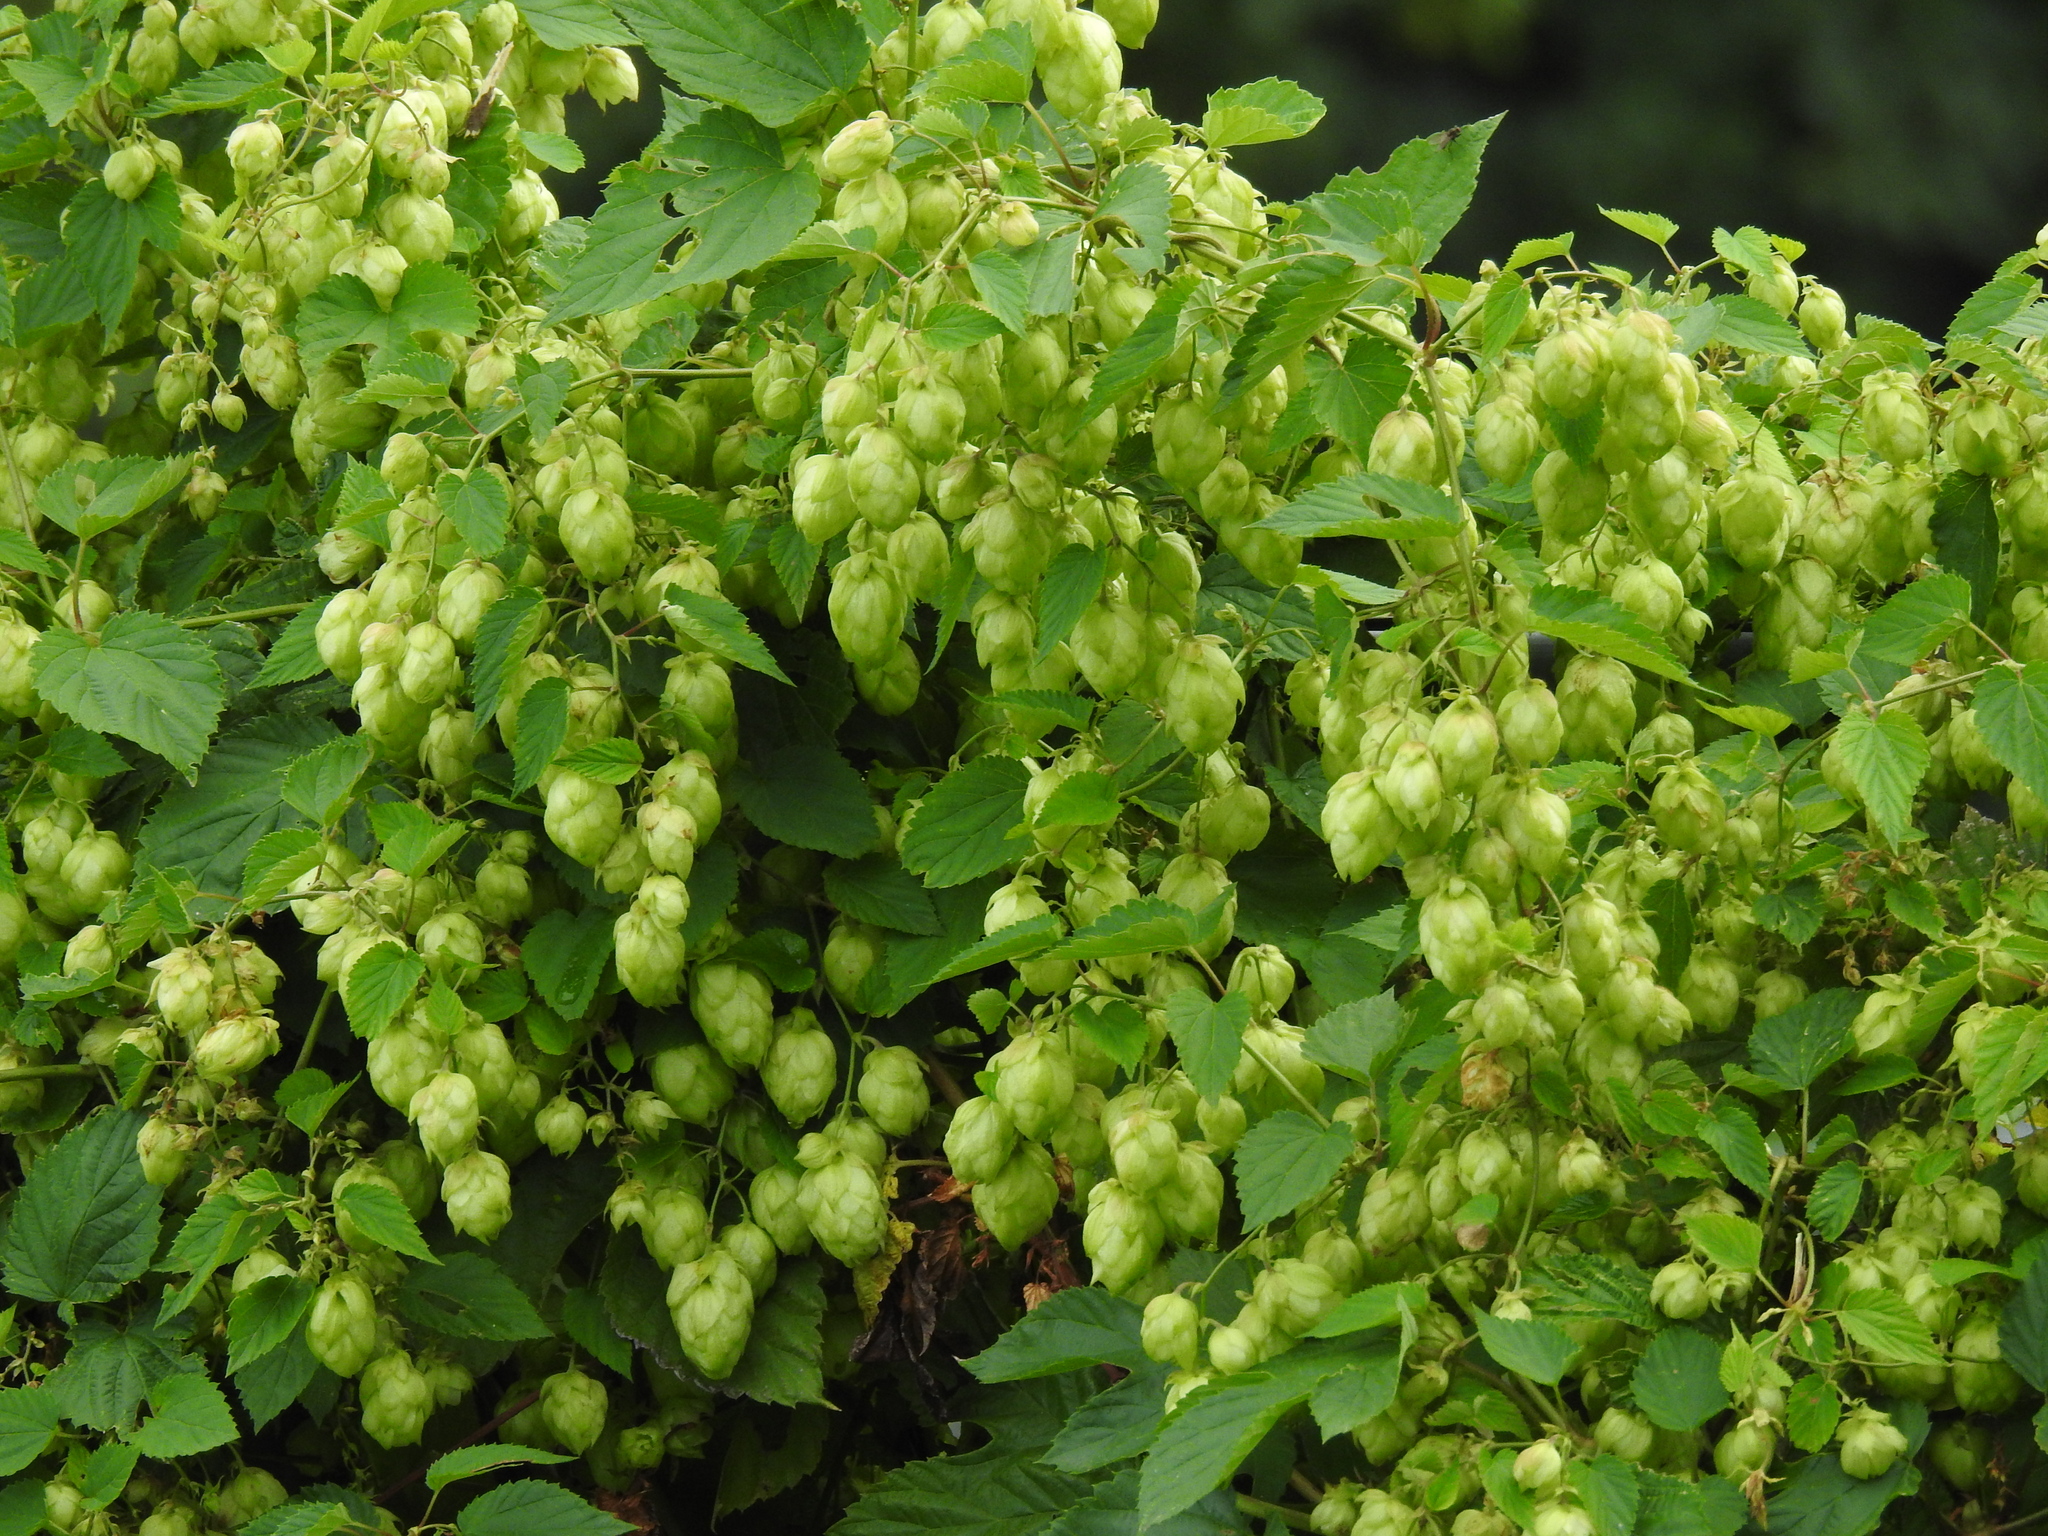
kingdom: Plantae
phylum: Tracheophyta
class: Magnoliopsida
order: Rosales
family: Cannabaceae
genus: Humulus
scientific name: Humulus lupulus
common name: Hop
